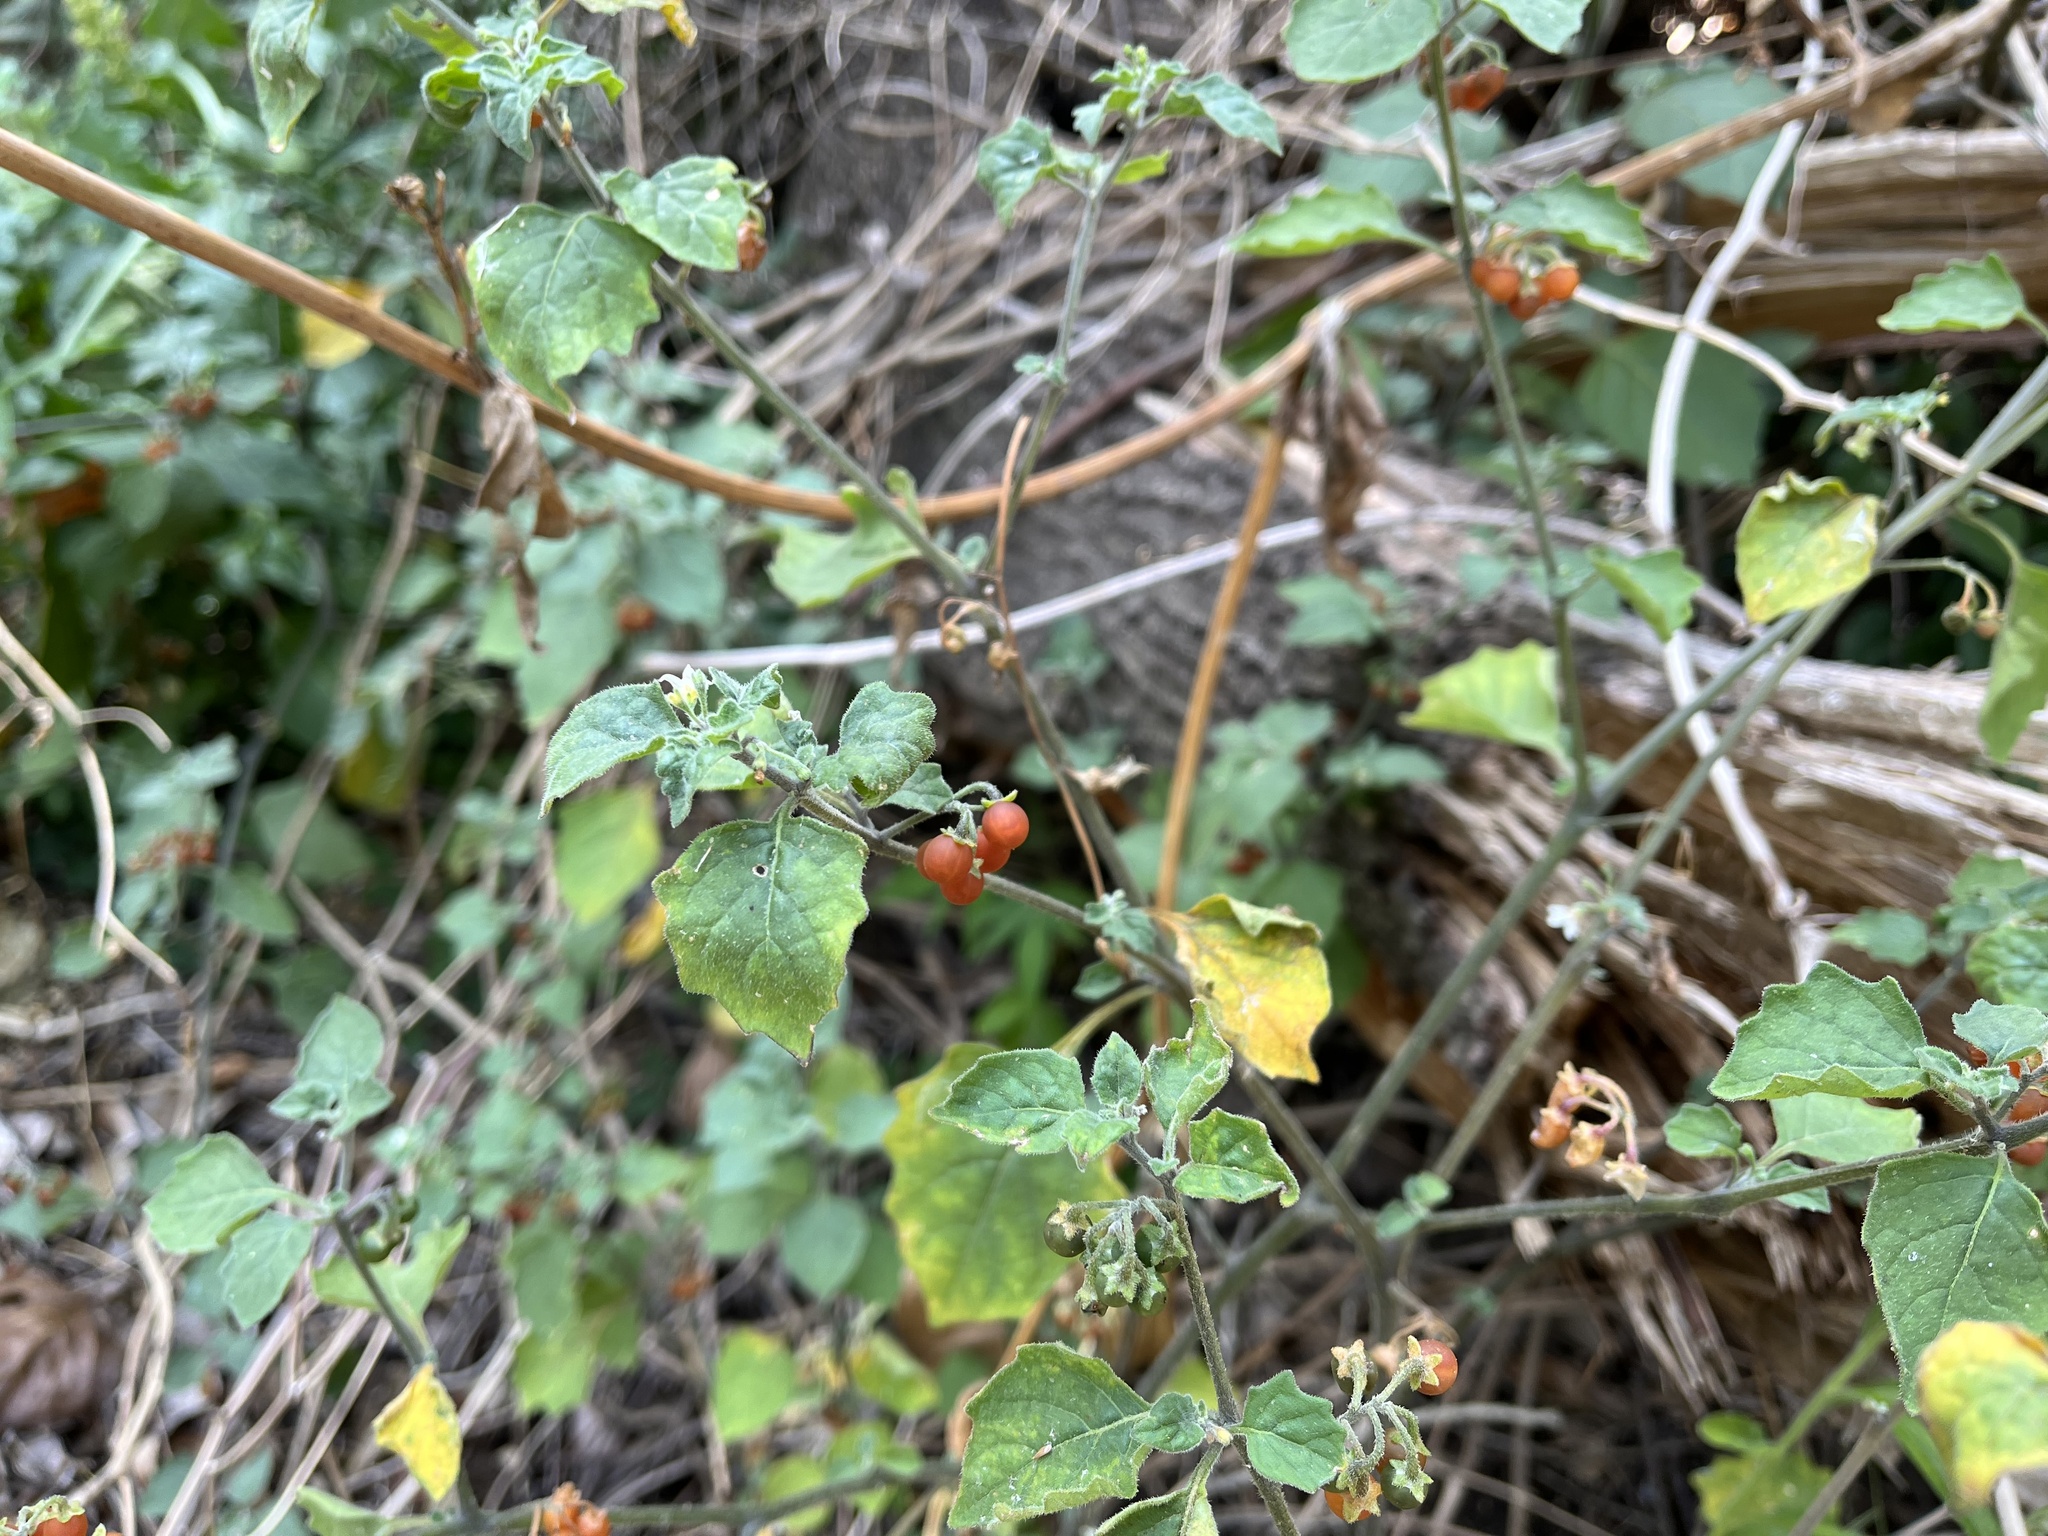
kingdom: Plantae
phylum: Tracheophyta
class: Magnoliopsida
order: Solanales
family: Solanaceae
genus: Solanum
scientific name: Solanum villosum
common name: Red nightshade
